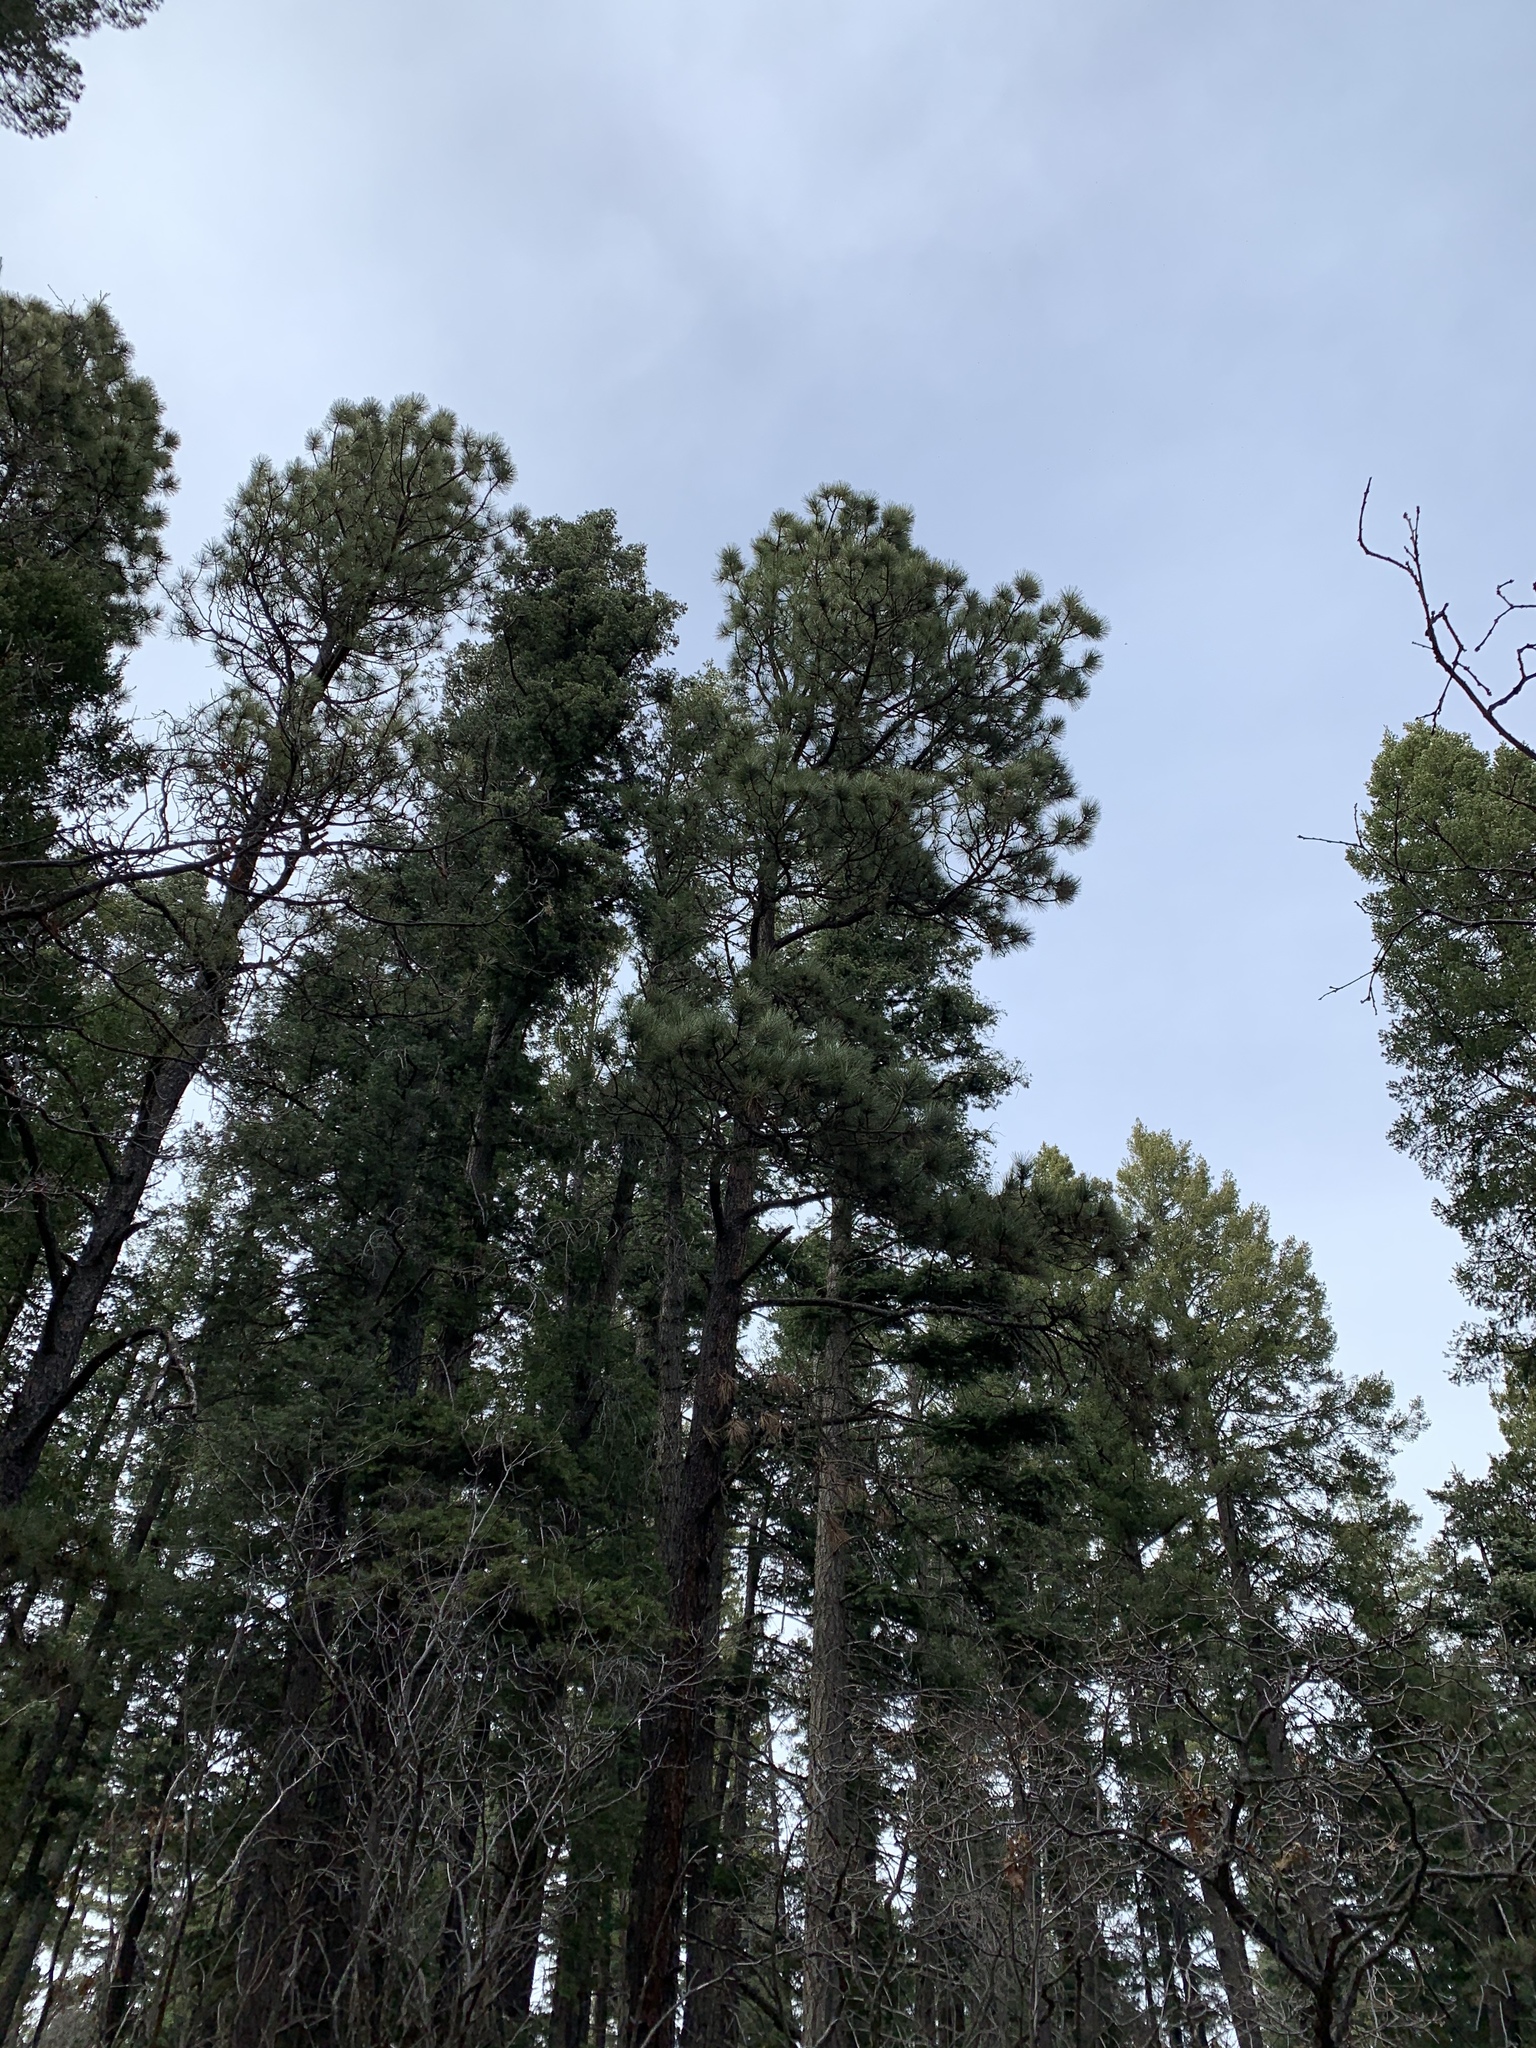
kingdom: Plantae
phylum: Tracheophyta
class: Pinopsida
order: Pinales
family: Pinaceae
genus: Pinus
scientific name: Pinus ponderosa
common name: Western yellow-pine
